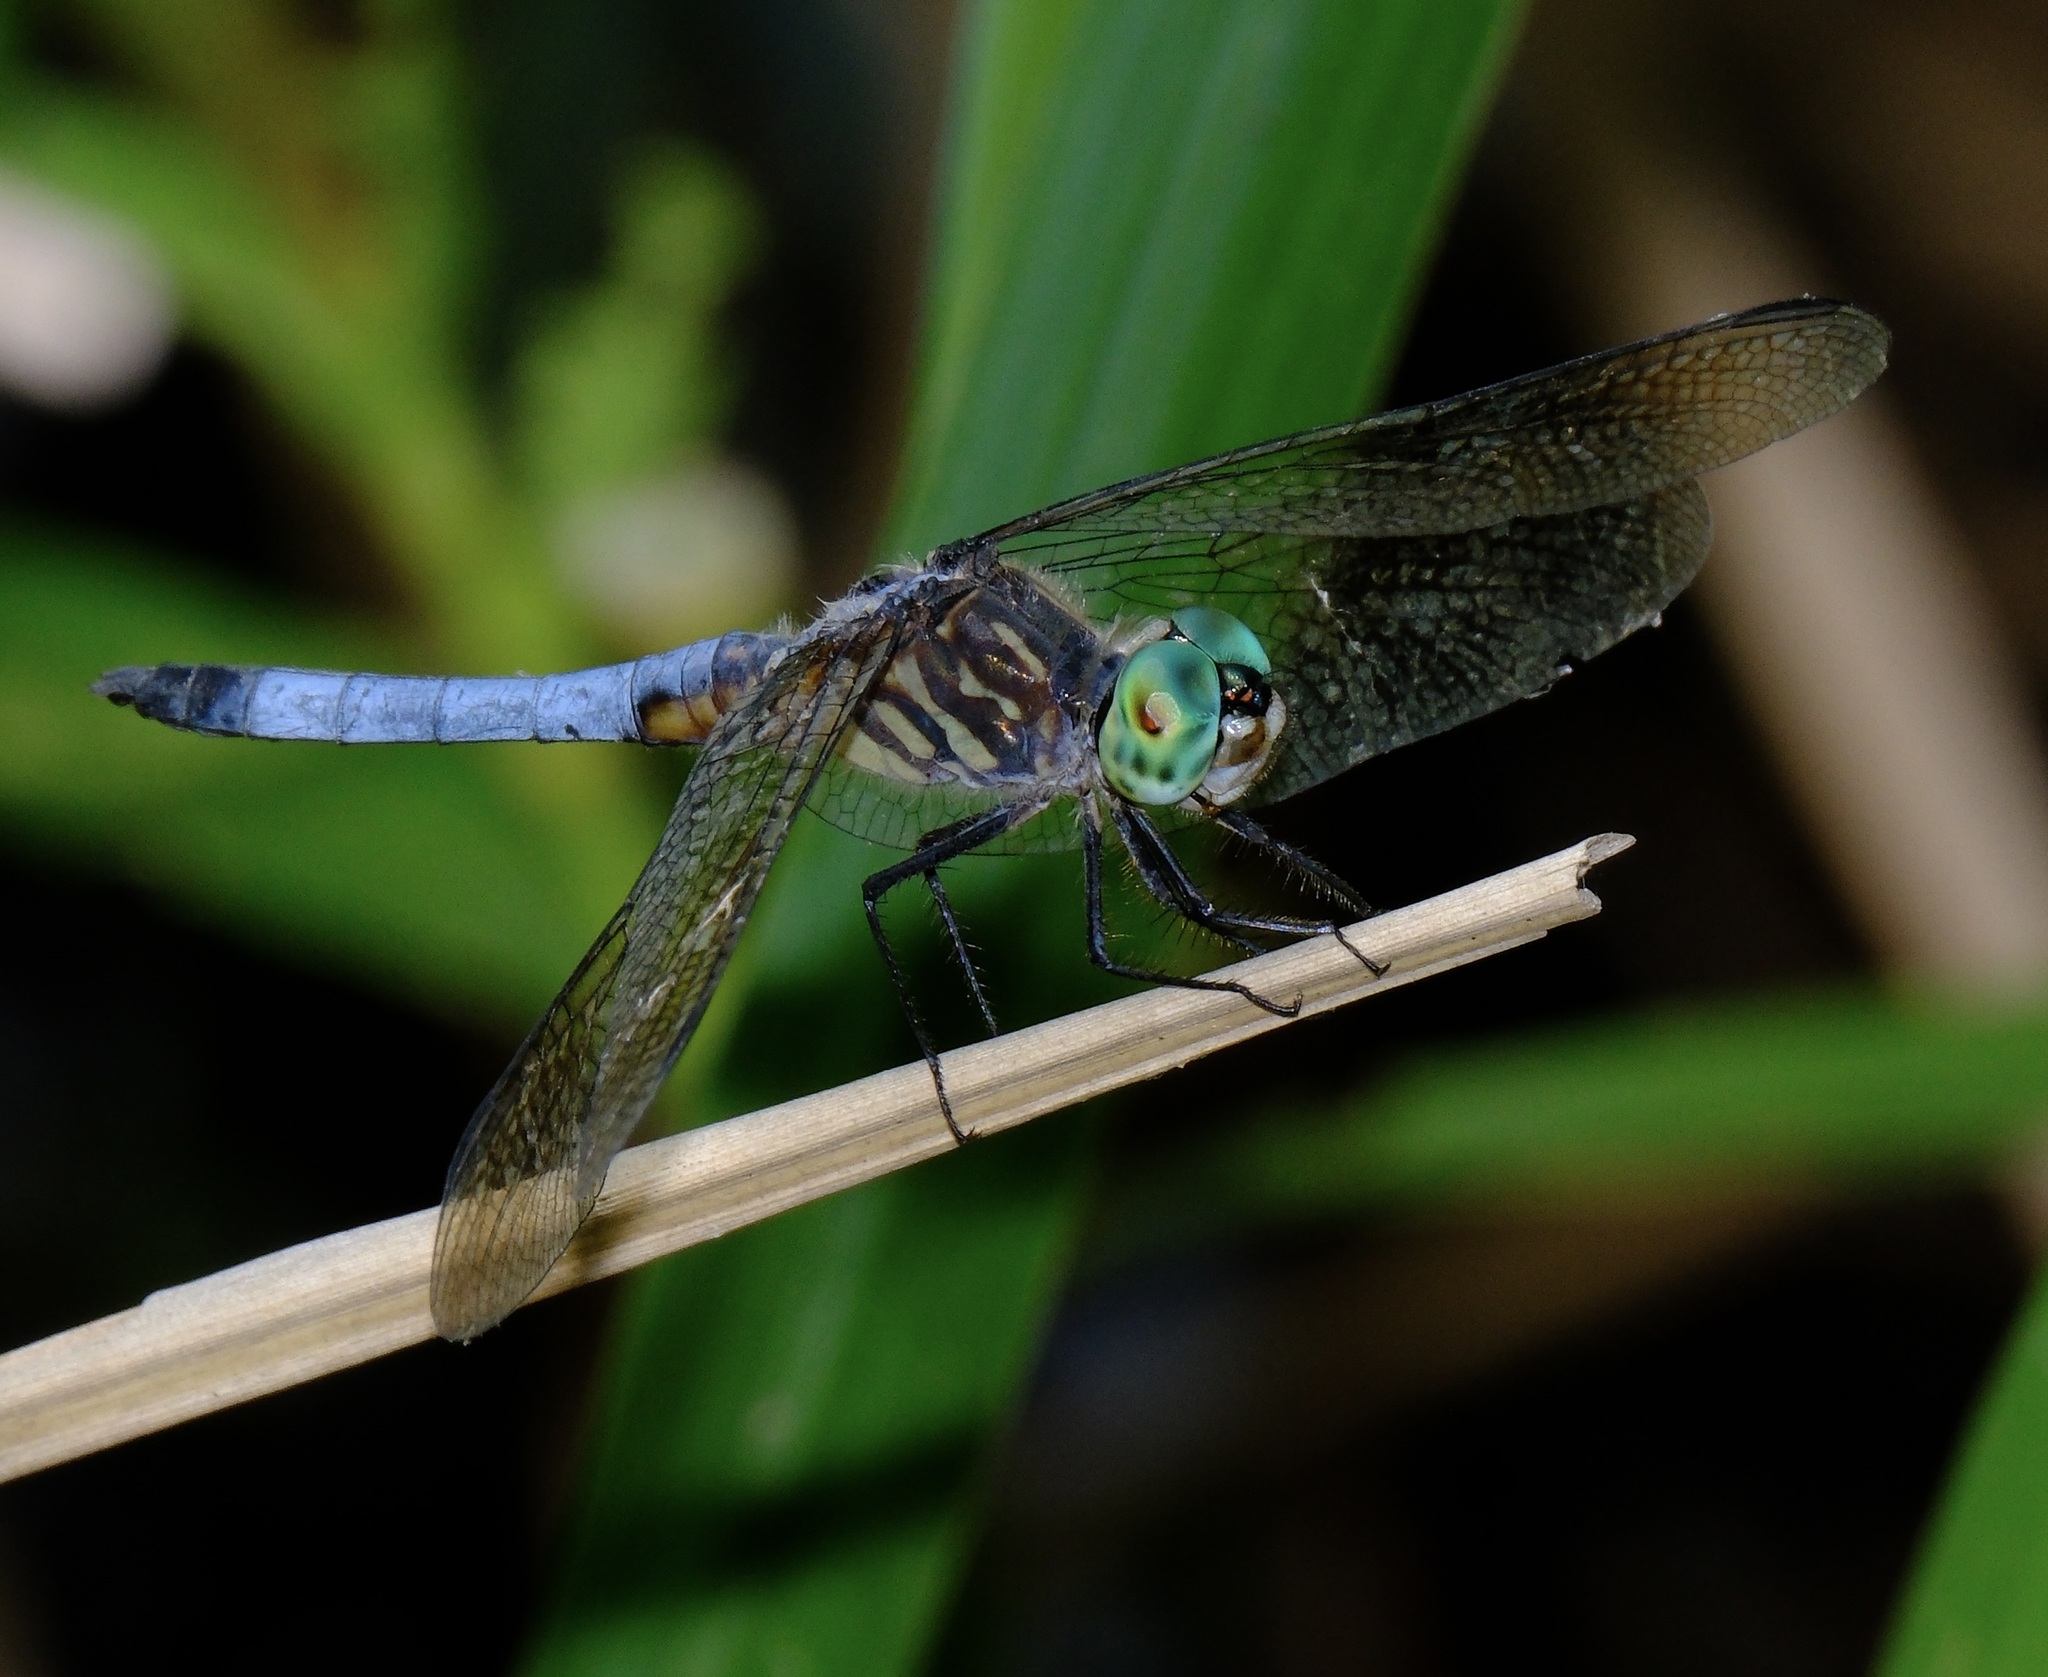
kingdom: Animalia
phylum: Arthropoda
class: Insecta
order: Odonata
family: Libellulidae
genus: Pachydiplax
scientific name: Pachydiplax longipennis
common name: Blue dasher
